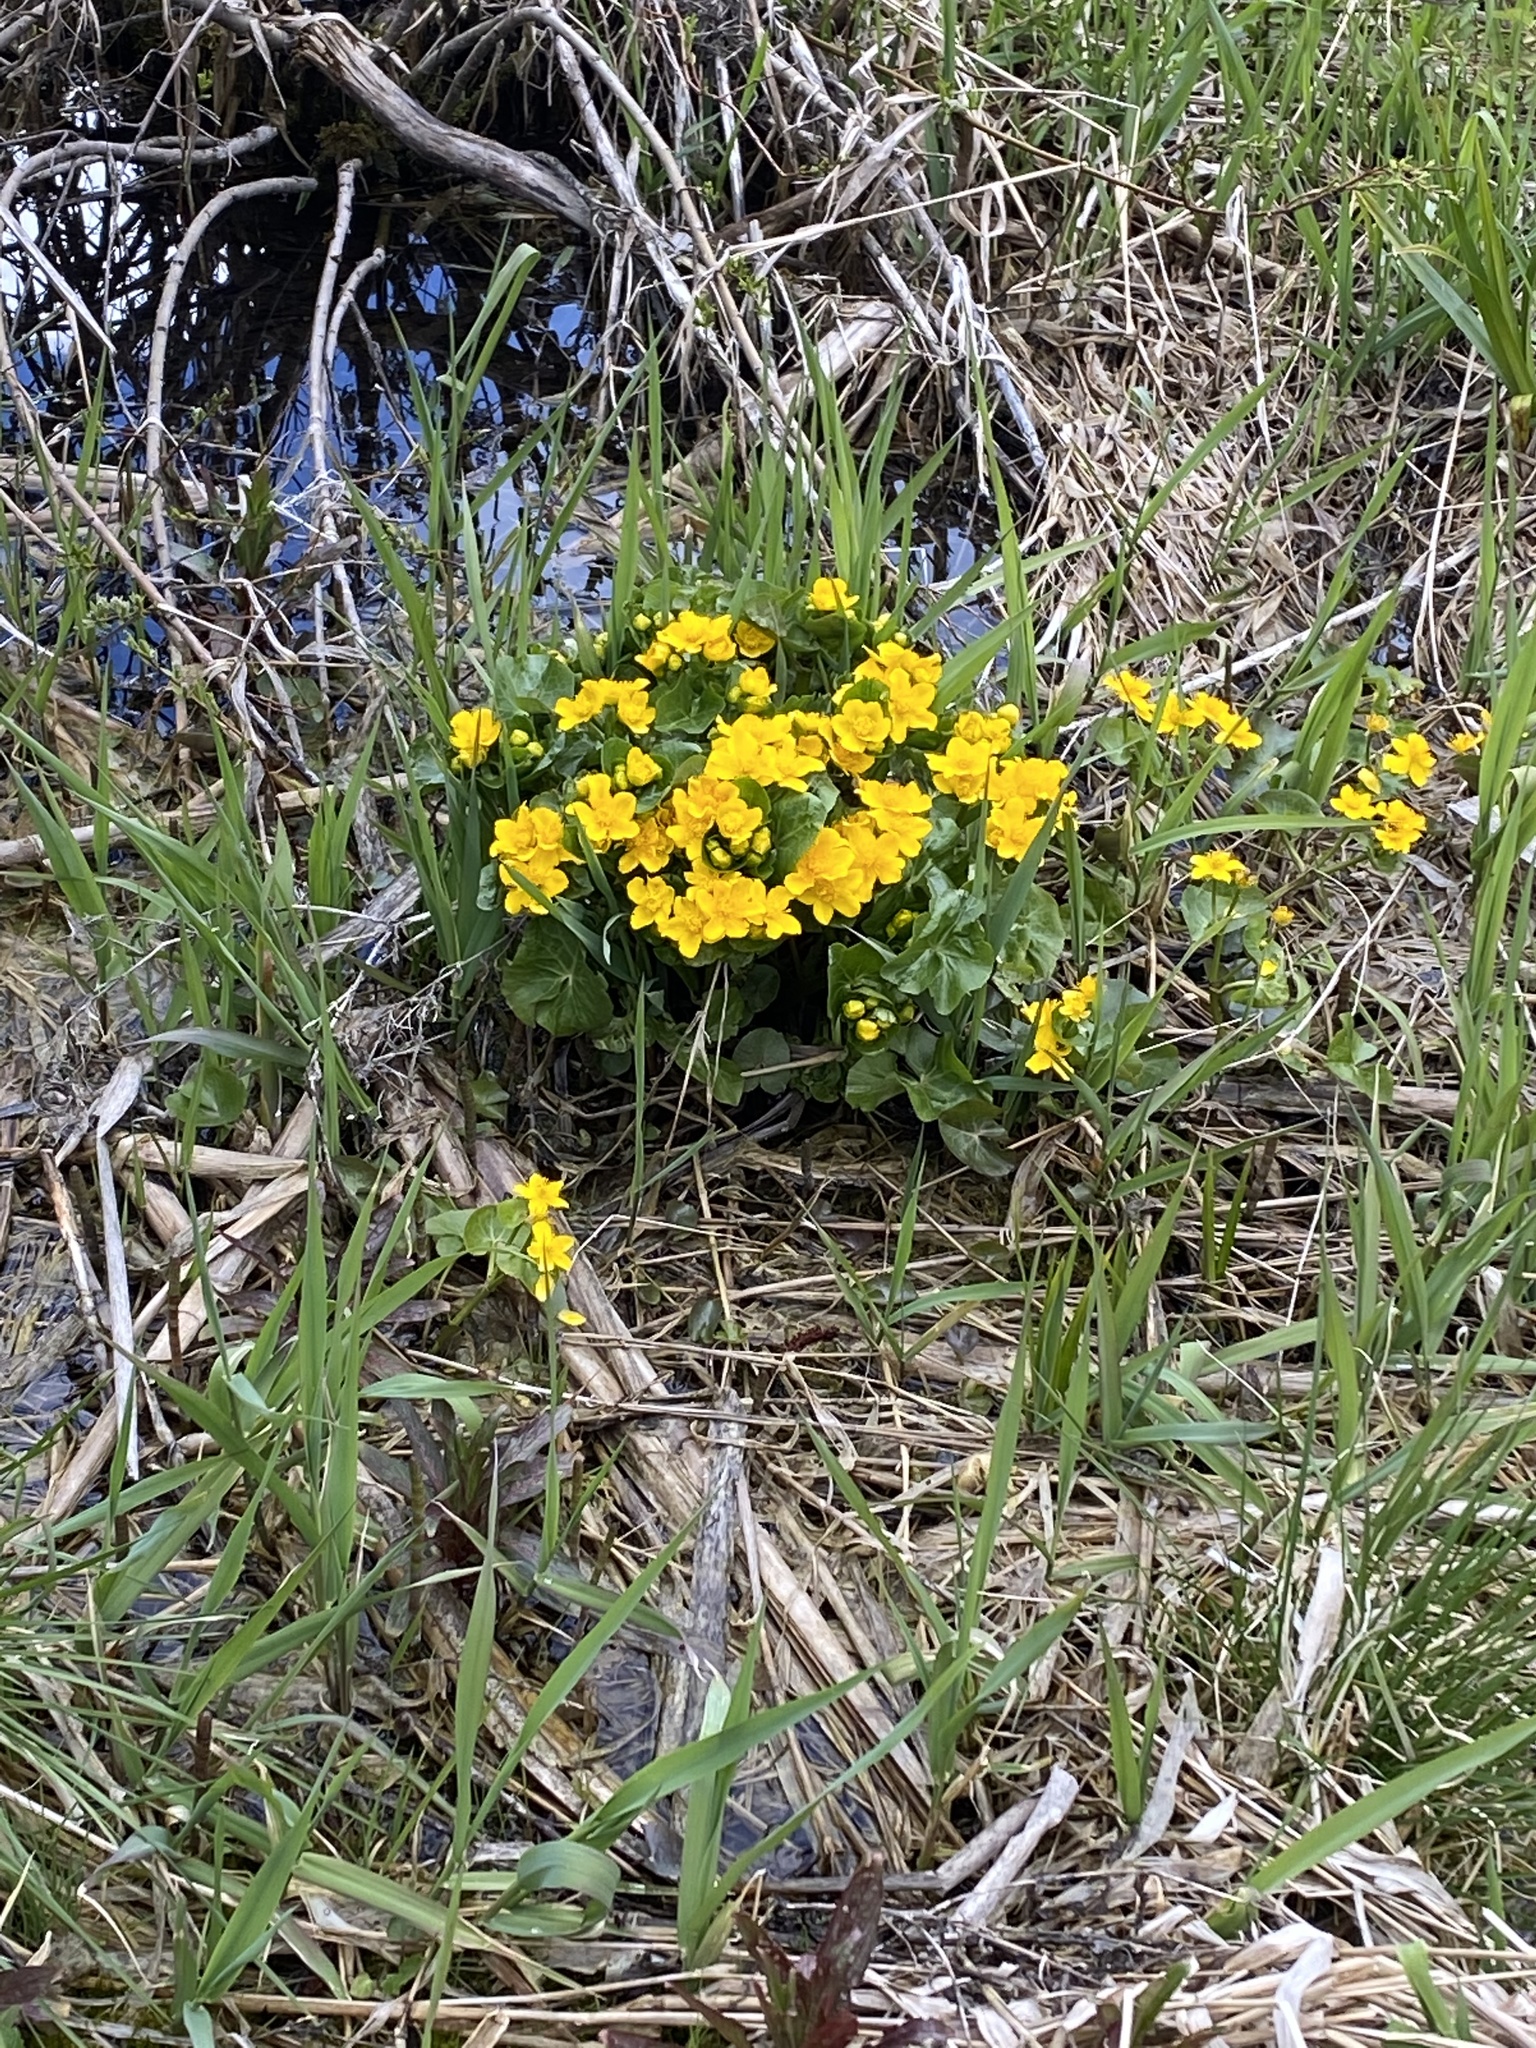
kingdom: Plantae
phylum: Tracheophyta
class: Magnoliopsida
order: Ranunculales
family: Ranunculaceae
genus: Caltha
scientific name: Caltha palustris
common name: Marsh marigold
